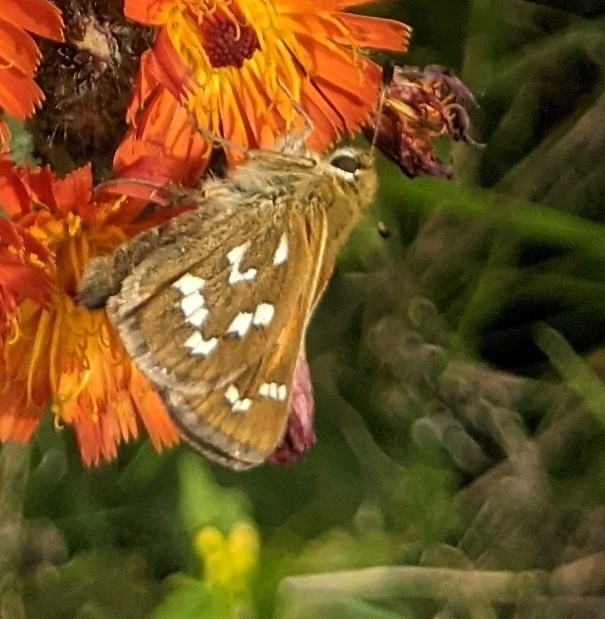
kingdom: Animalia
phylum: Arthropoda
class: Insecta
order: Lepidoptera
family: Hesperiidae
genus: Hesperia
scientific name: Hesperia comma
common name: Common branded skipper
